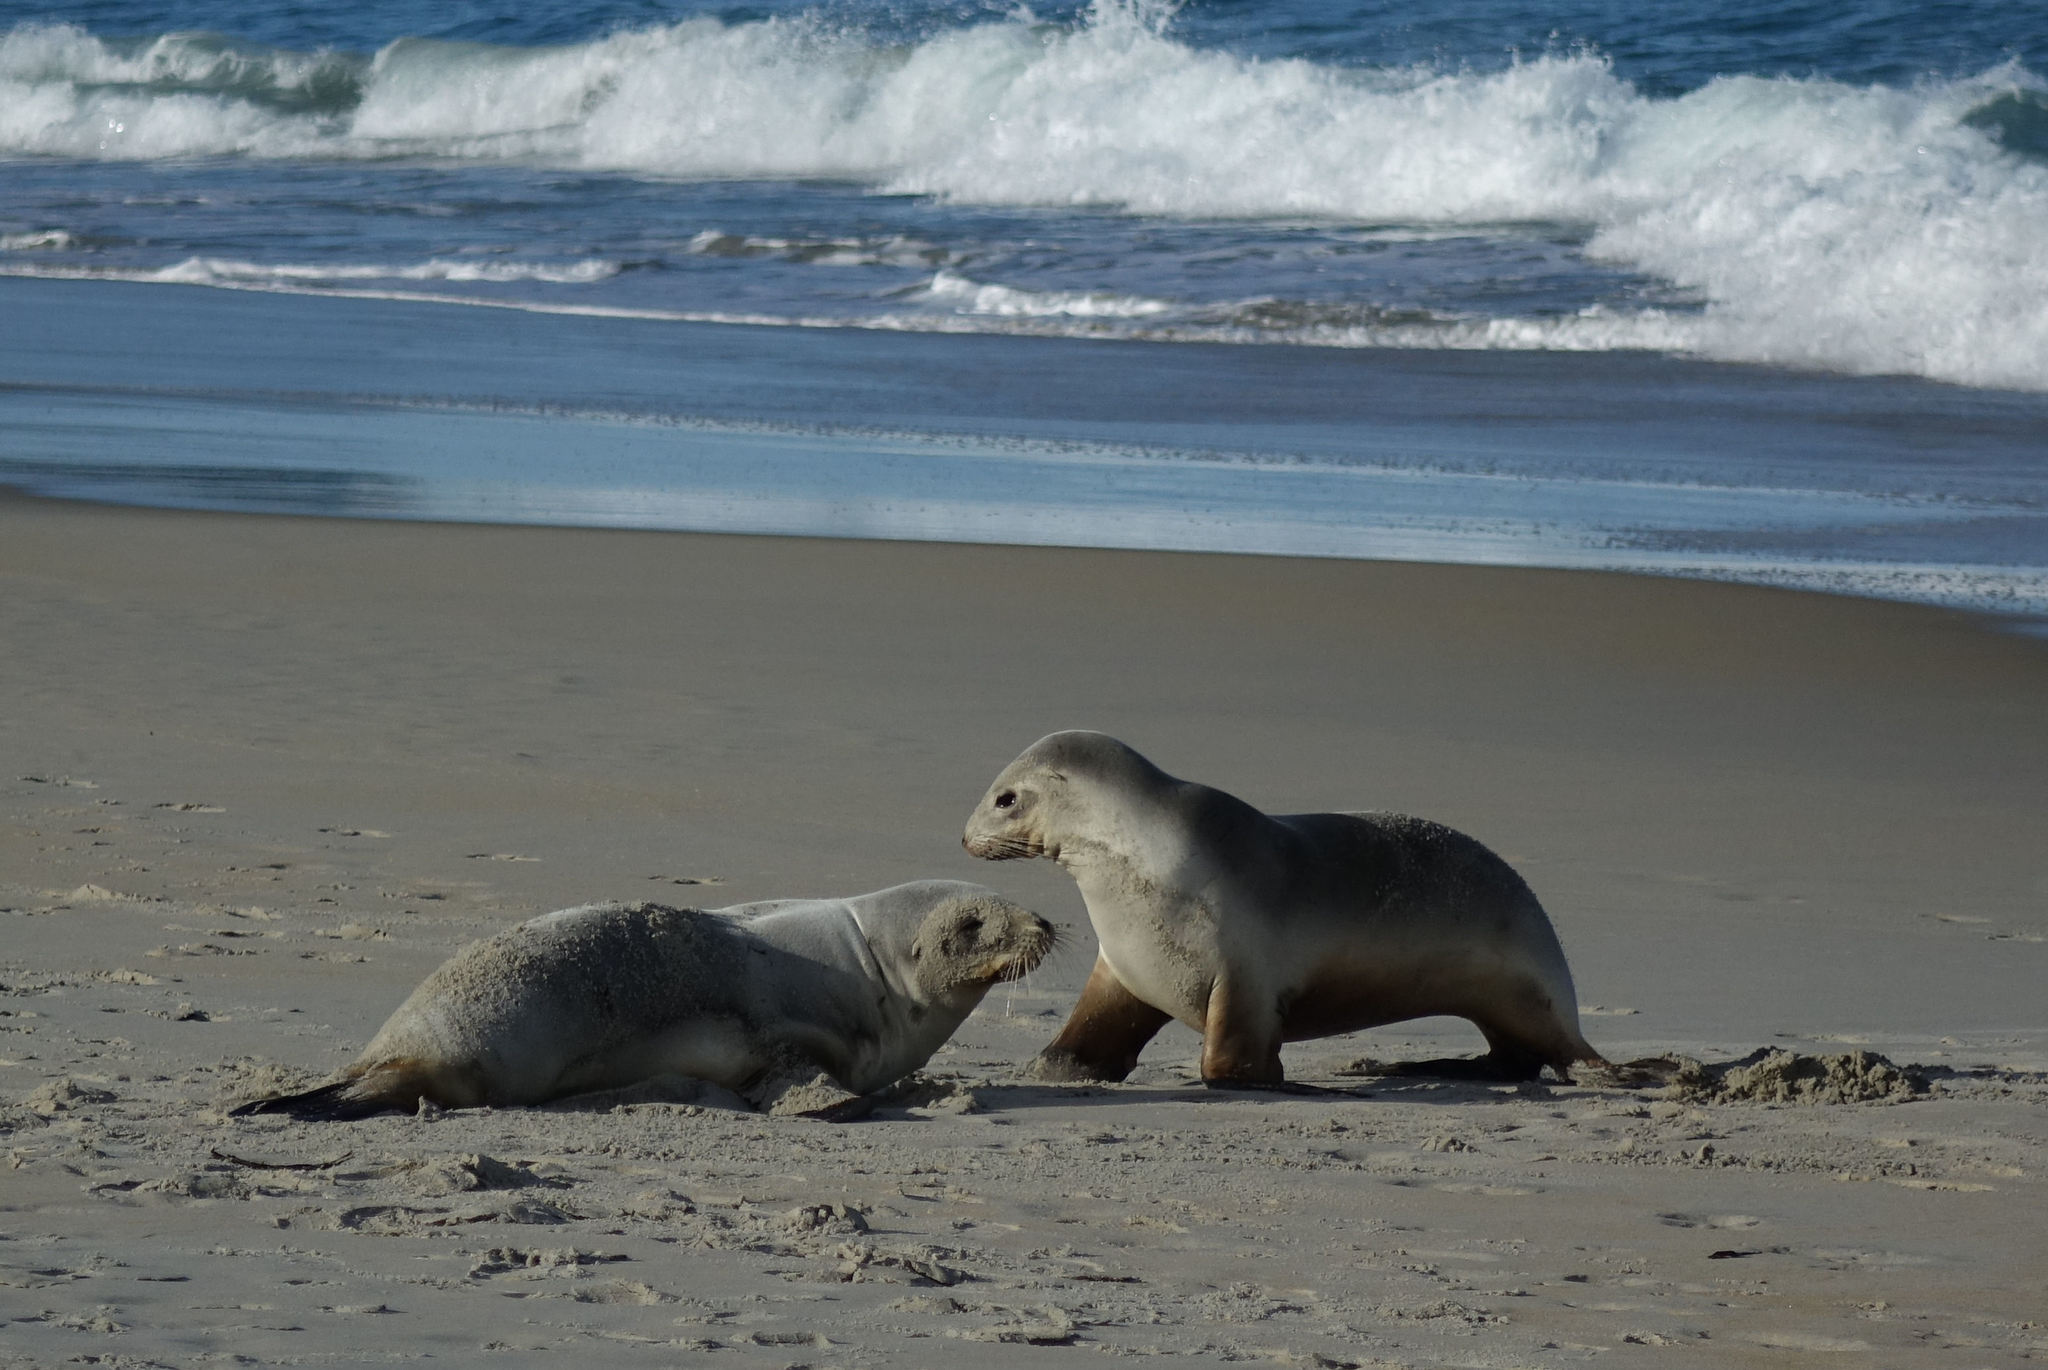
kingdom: Animalia
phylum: Chordata
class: Mammalia
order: Carnivora
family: Otariidae
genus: Phocarctos
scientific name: Phocarctos hookeri
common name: New zealand sea lion
